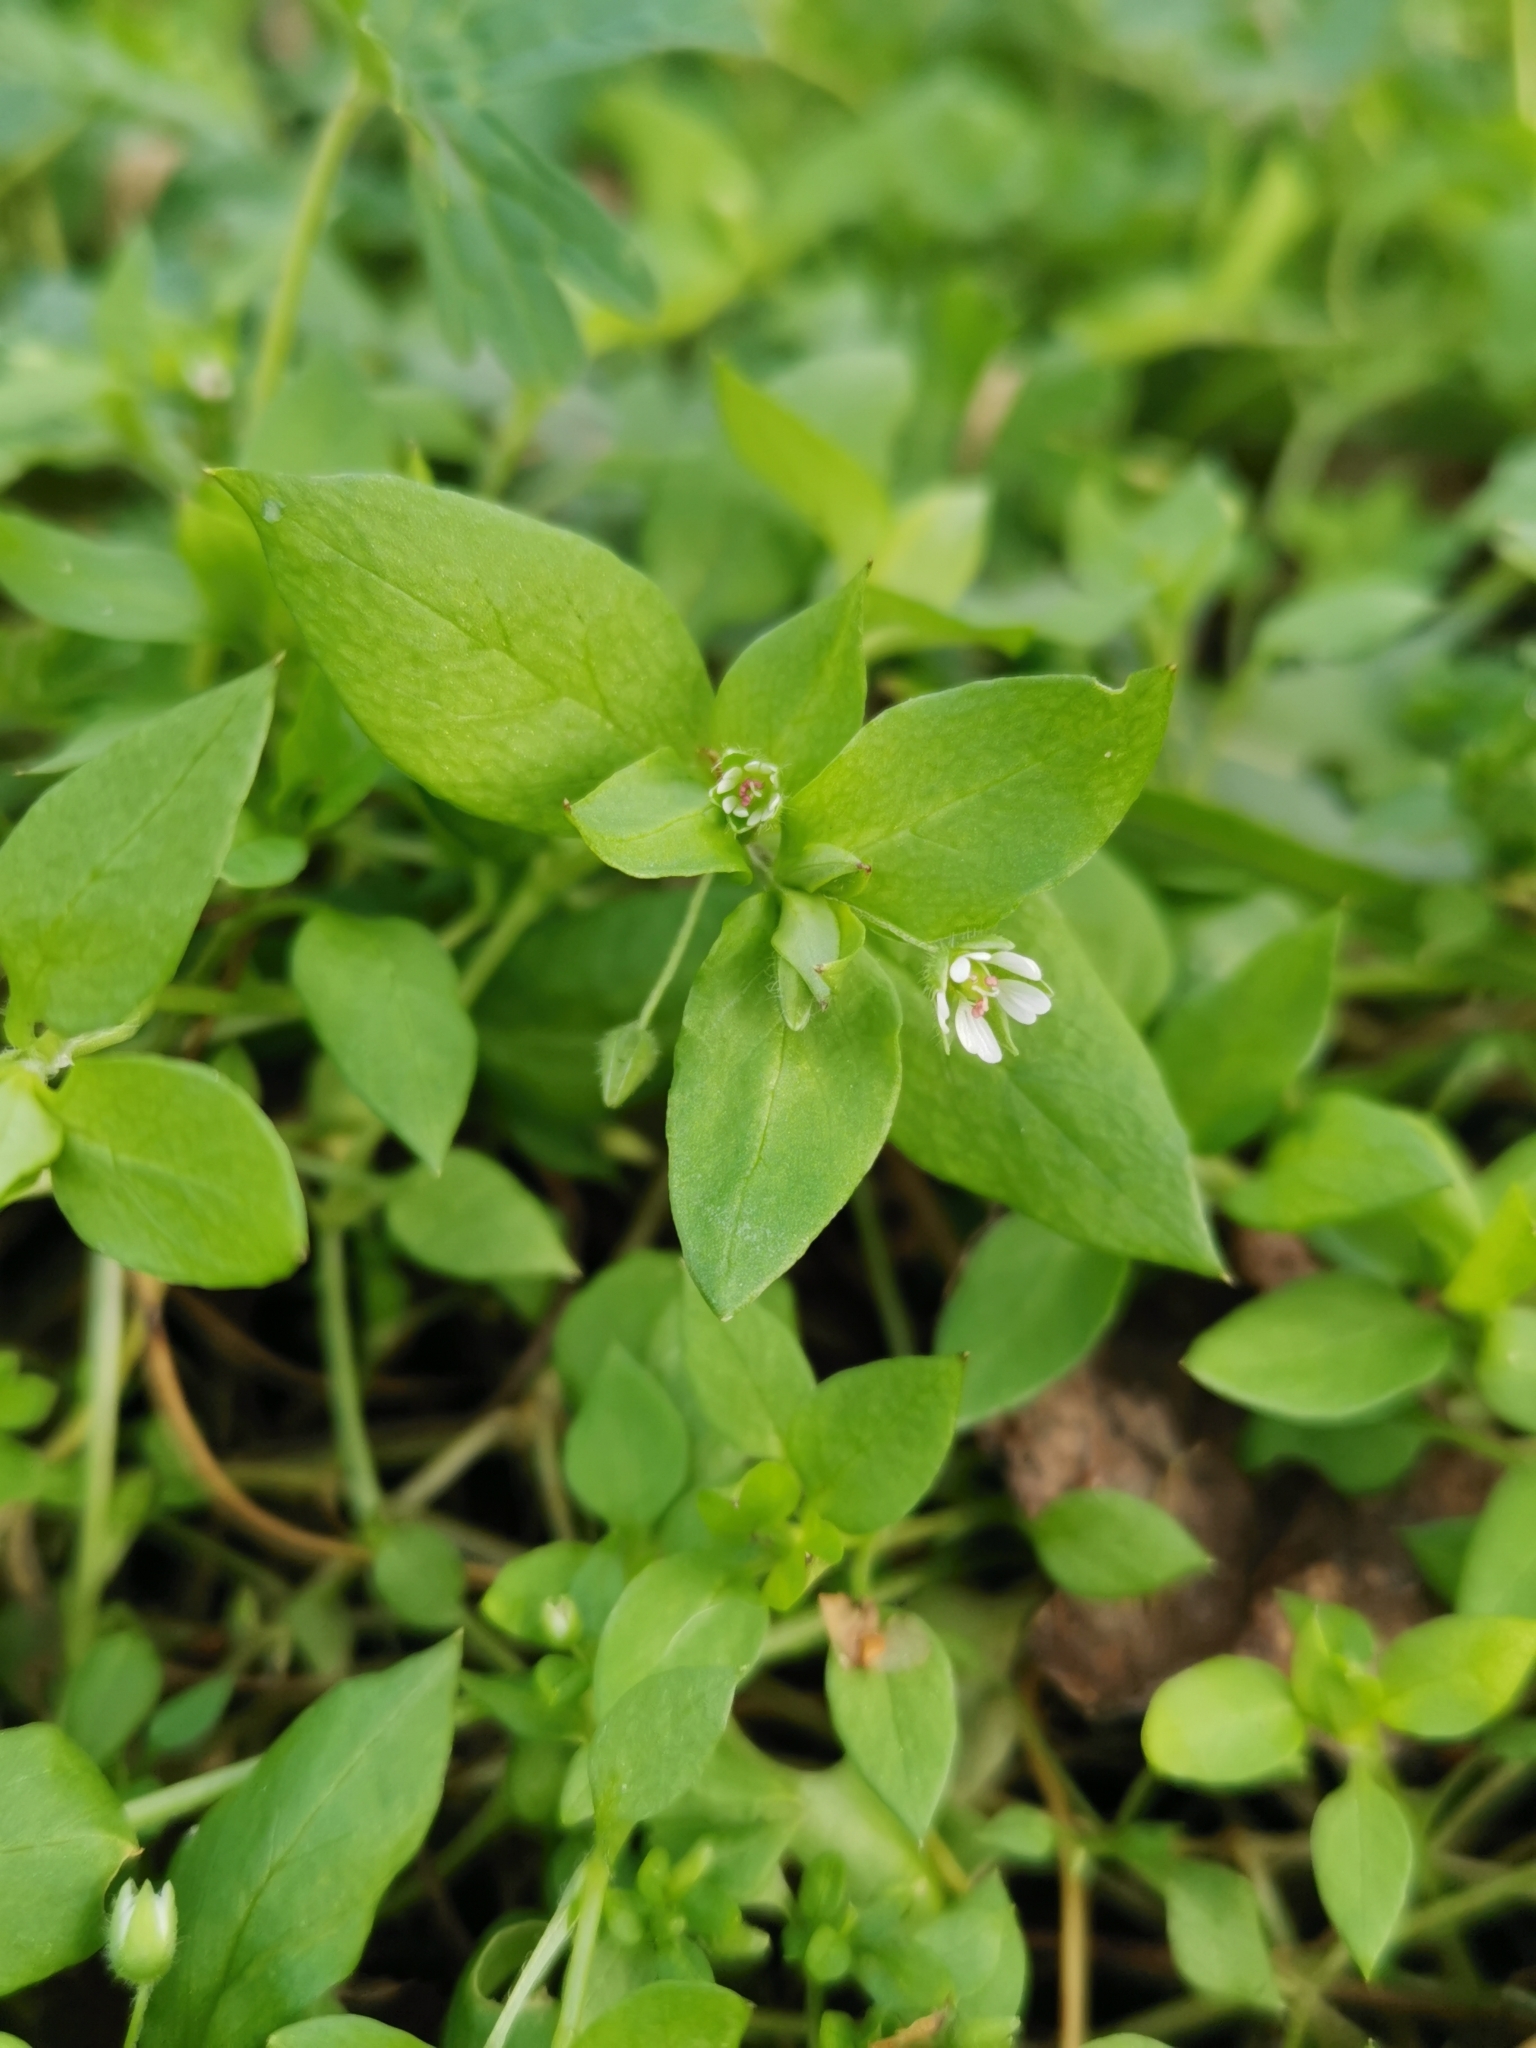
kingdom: Plantae
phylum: Tracheophyta
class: Magnoliopsida
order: Caryophyllales
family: Caryophyllaceae
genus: Stellaria
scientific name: Stellaria media
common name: Common chickweed
